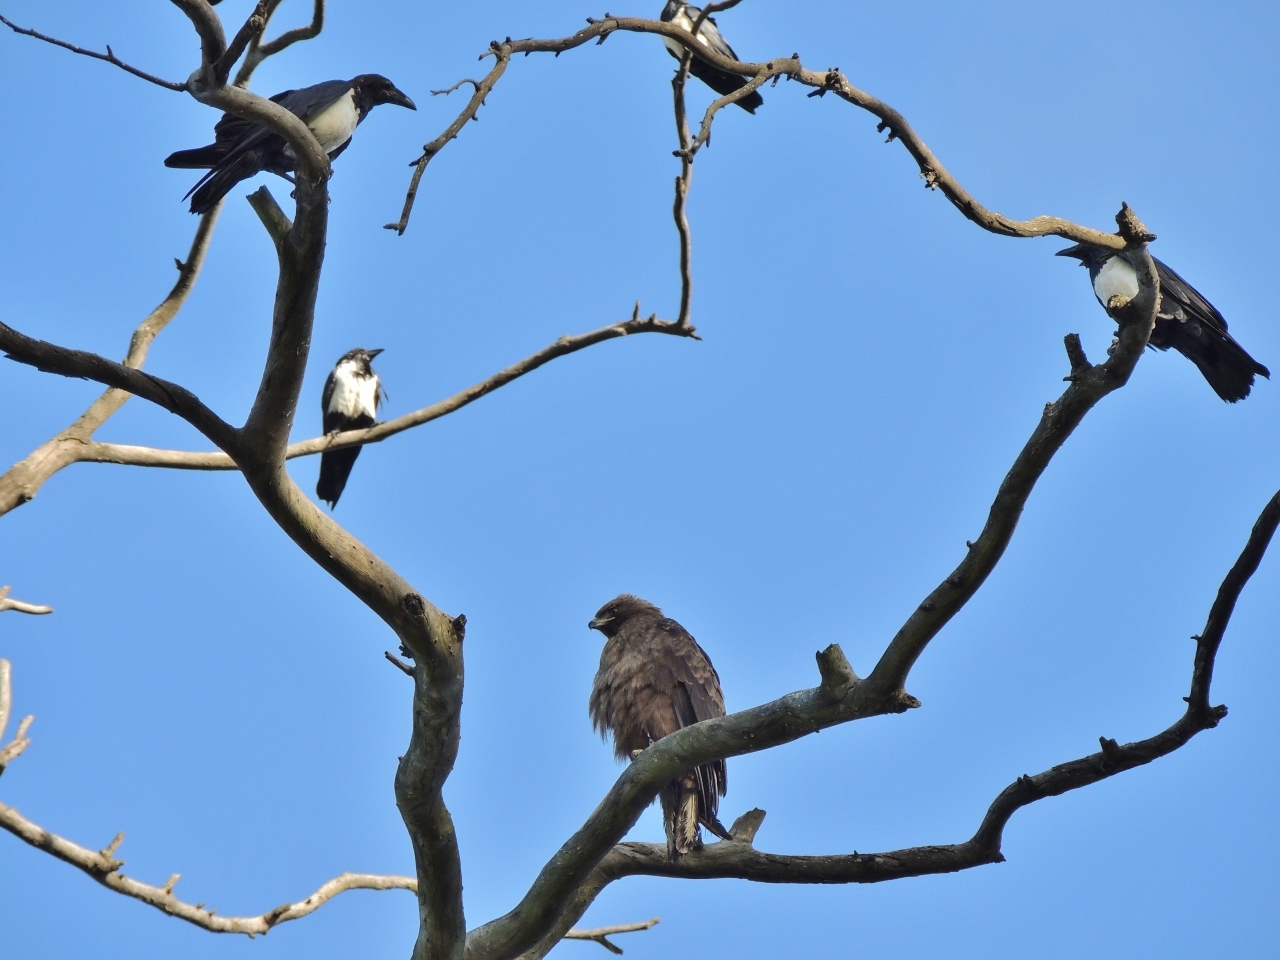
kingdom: Animalia
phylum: Chordata
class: Aves
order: Passeriformes
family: Corvidae
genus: Corvus
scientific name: Corvus albus
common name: Pied crow
